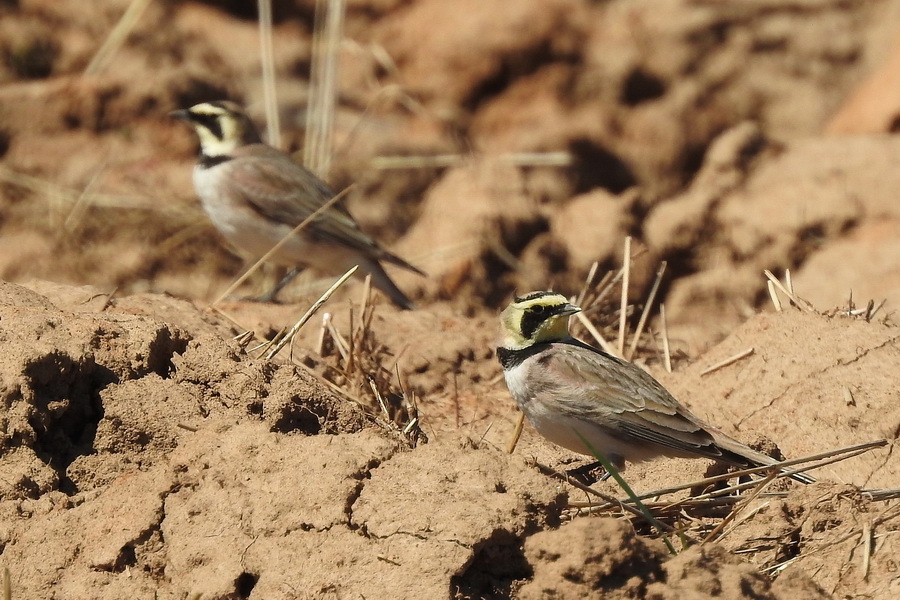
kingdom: Animalia
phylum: Chordata
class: Aves
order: Passeriformes
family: Alaudidae
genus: Eremophila
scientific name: Eremophila alpestris
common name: Horned lark
